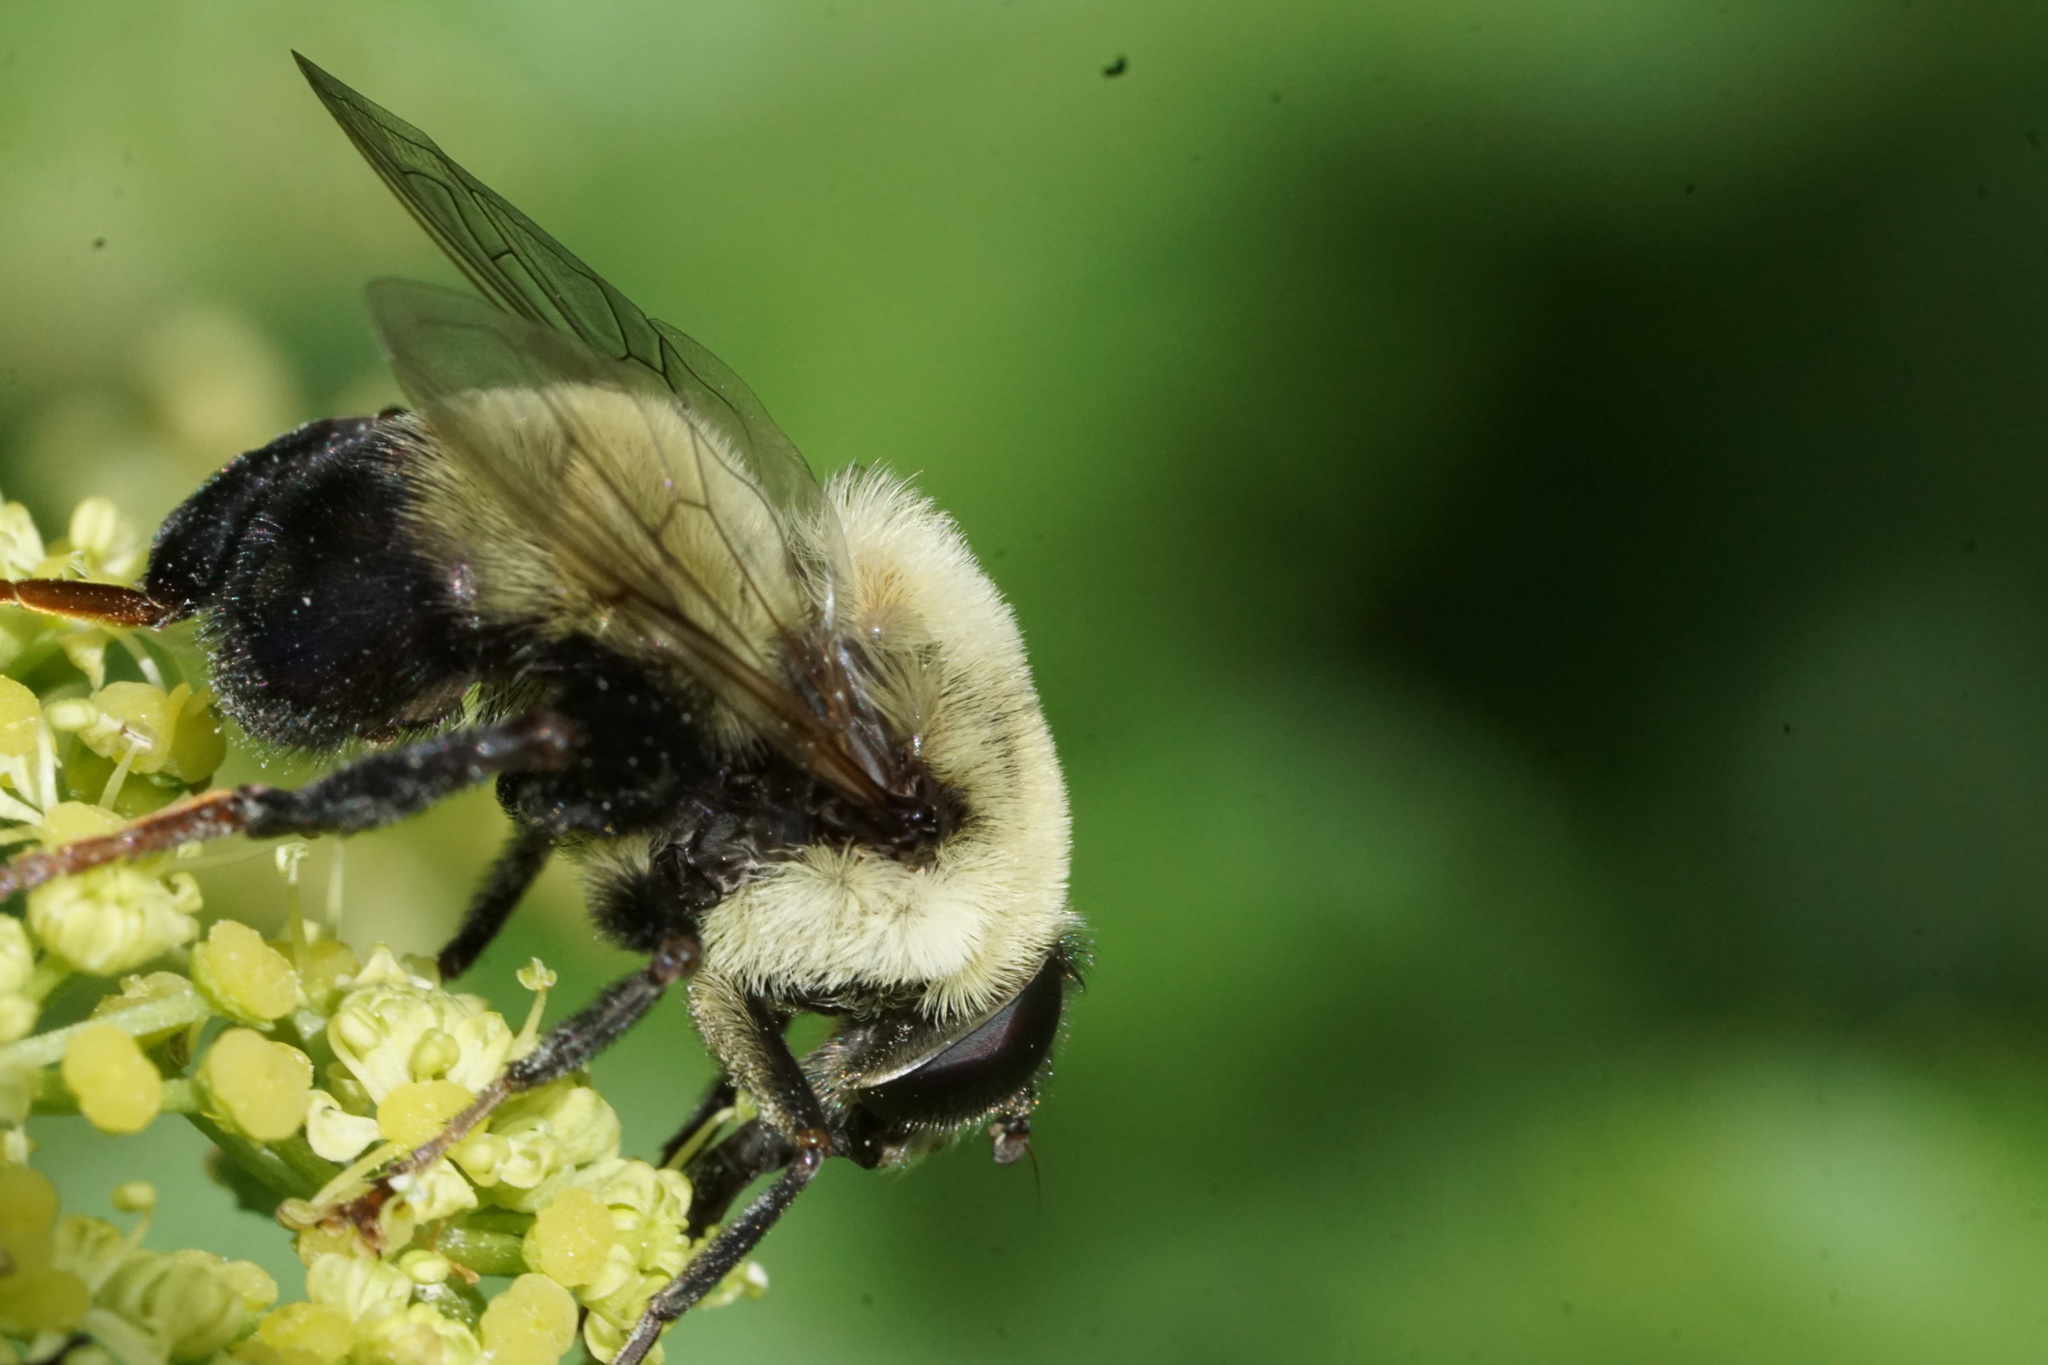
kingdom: Animalia
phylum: Arthropoda
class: Insecta
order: Diptera
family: Syrphidae
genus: Imatisma
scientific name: Imatisma posticata
